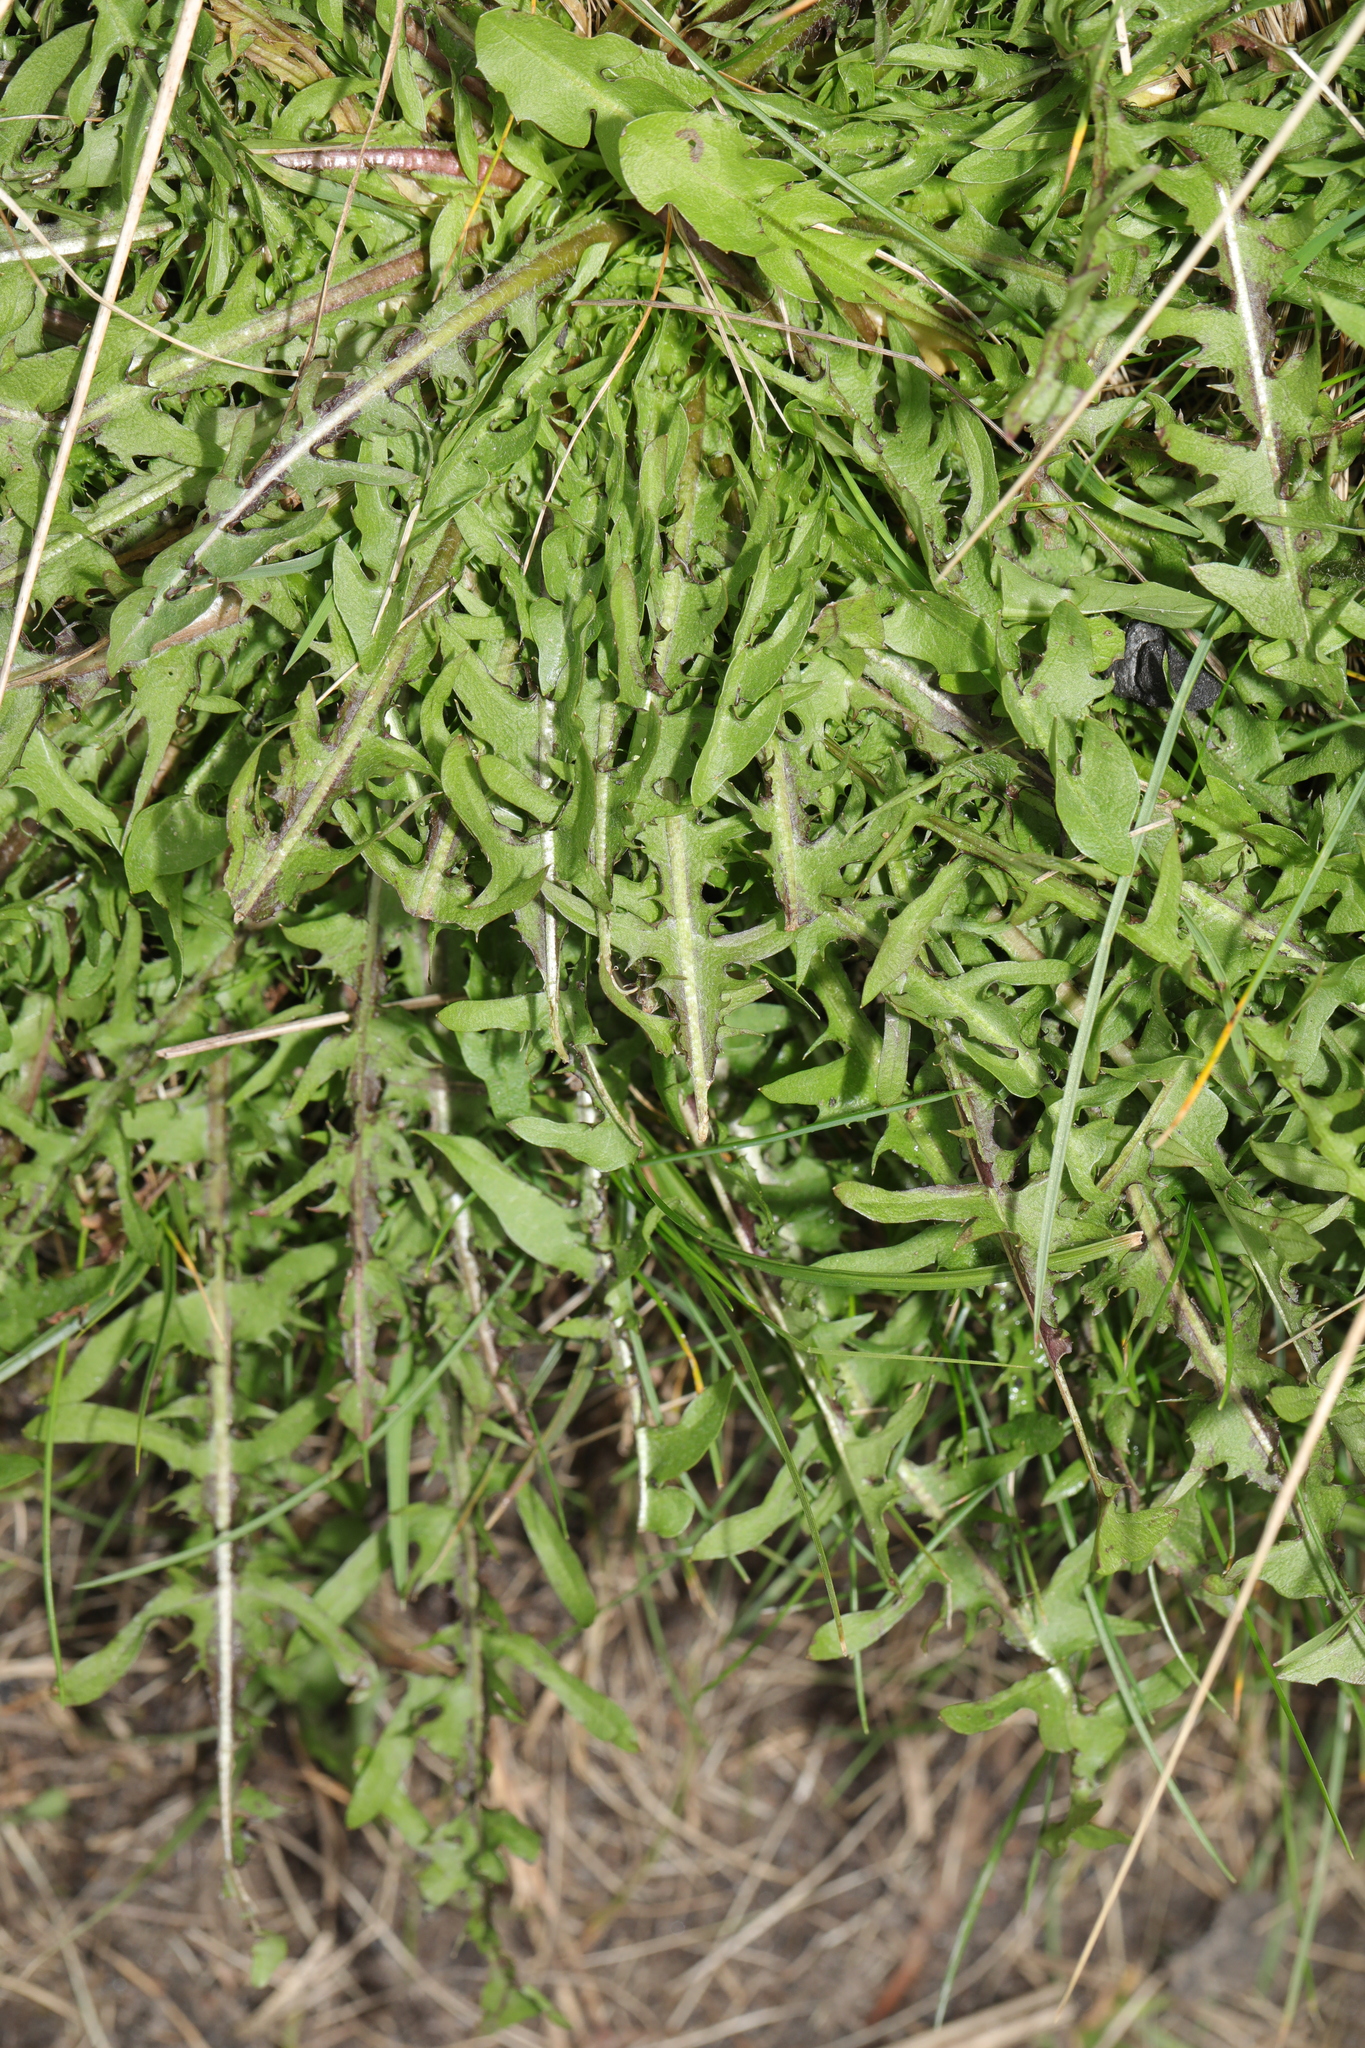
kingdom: Plantae
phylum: Tracheophyta
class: Magnoliopsida
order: Asterales
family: Asteraceae
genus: Taraxacum
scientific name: Taraxacum officinale
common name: Common dandelion
